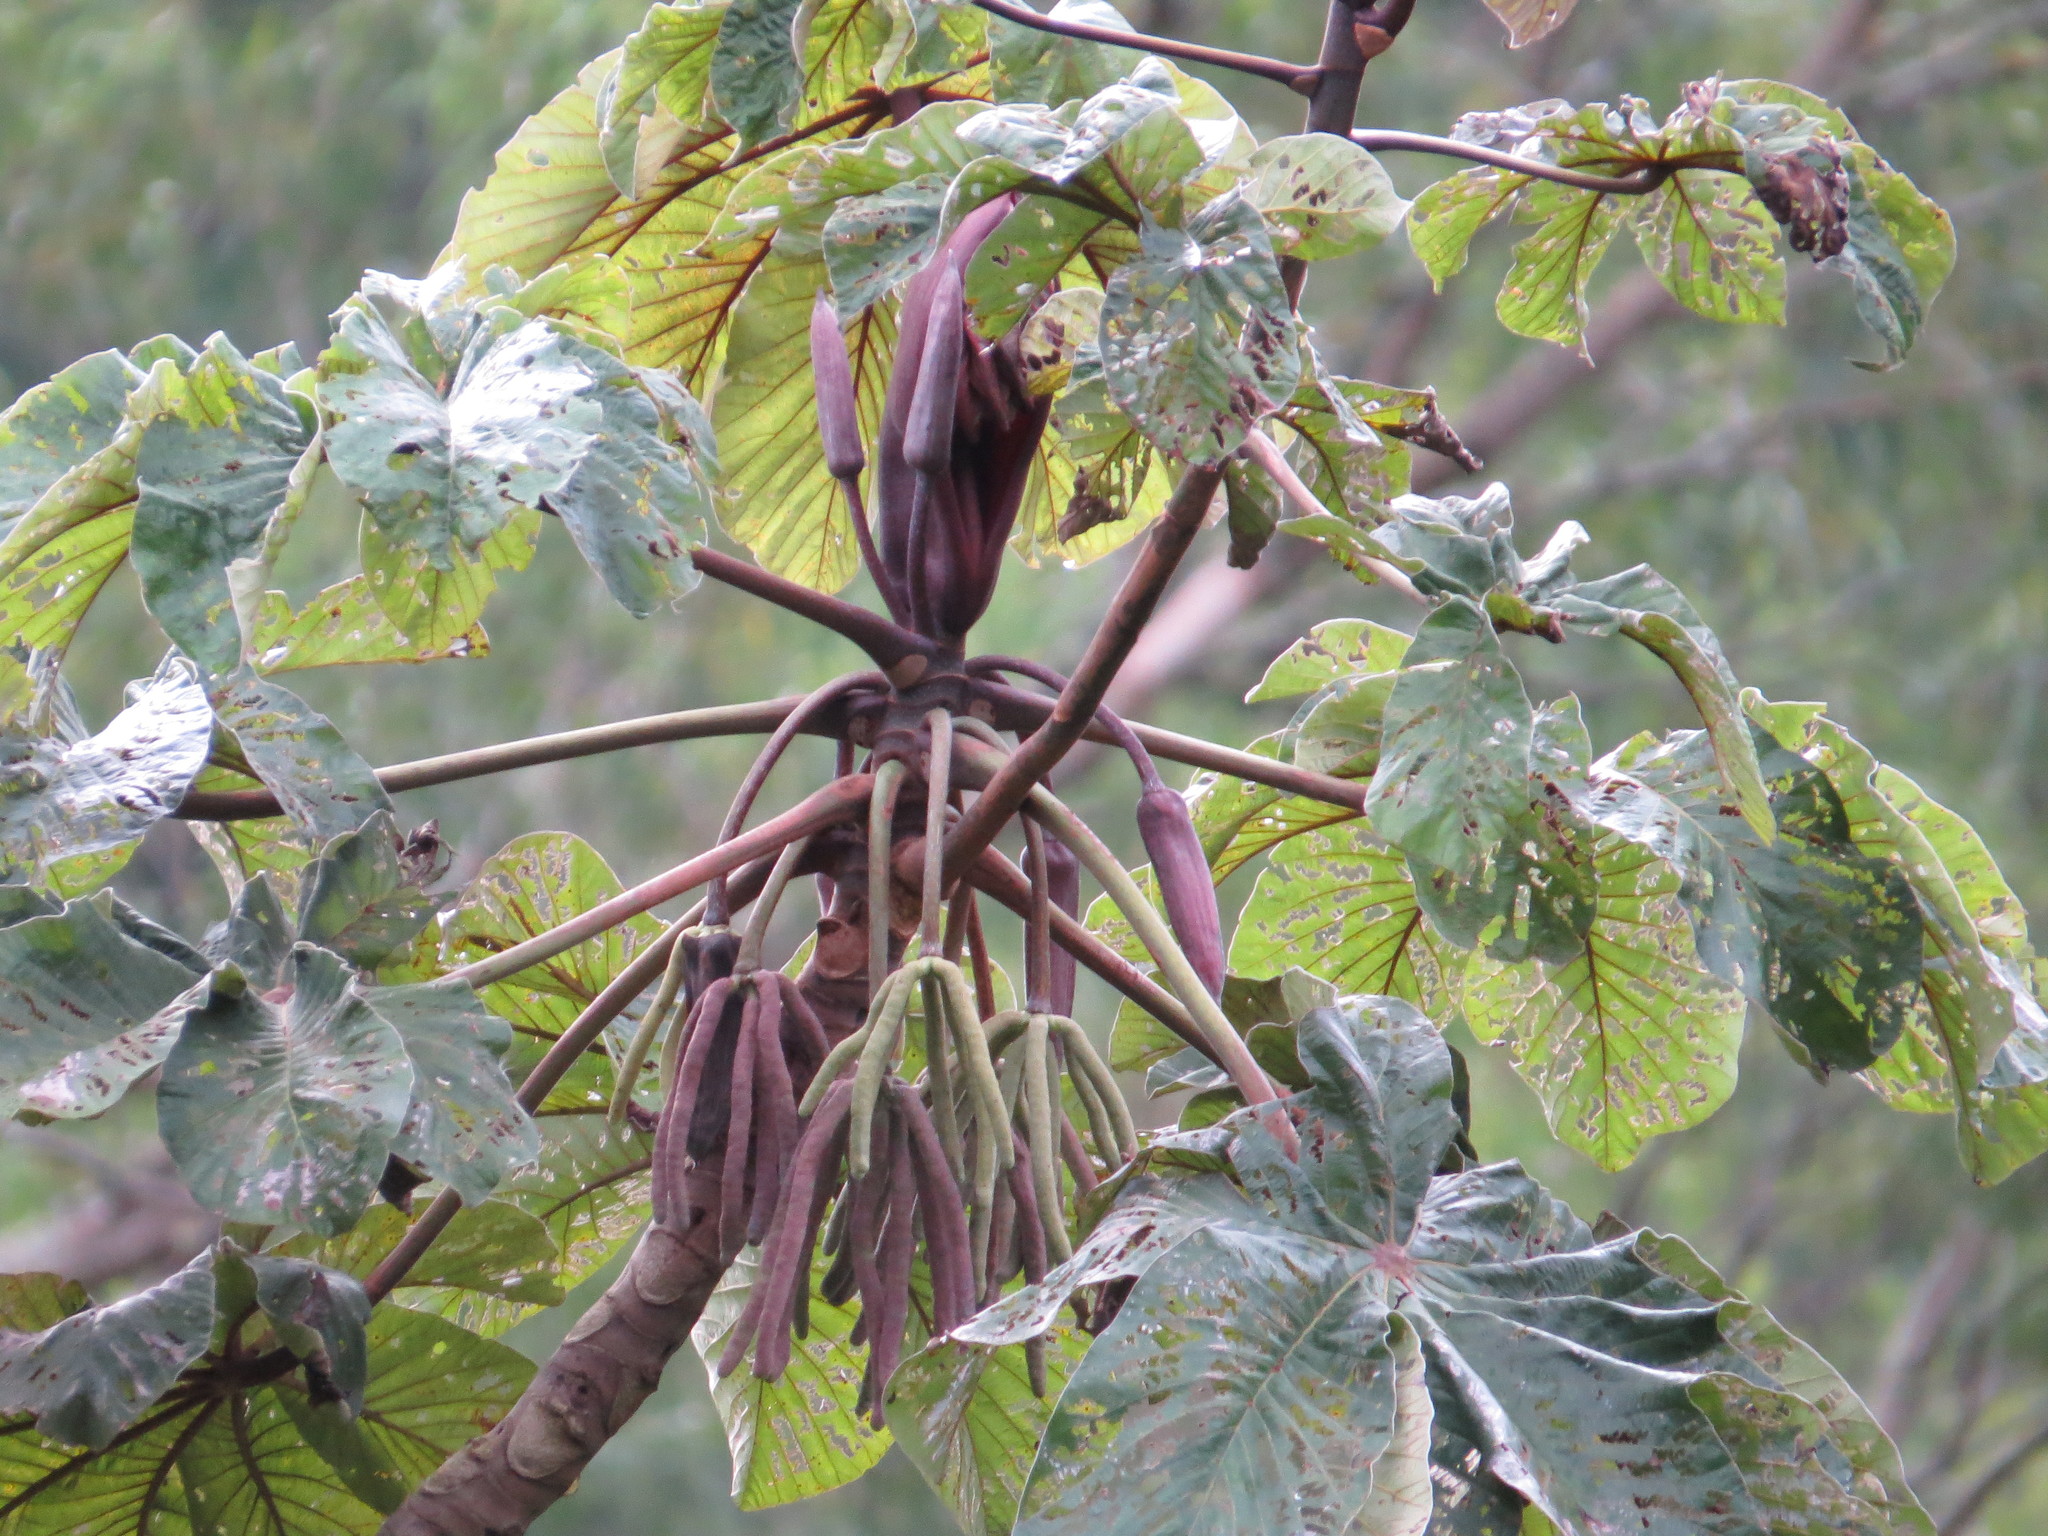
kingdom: Plantae
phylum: Tracheophyta
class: Magnoliopsida
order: Rosales
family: Urticaceae
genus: Cecropia
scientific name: Cecropia glaziovii
